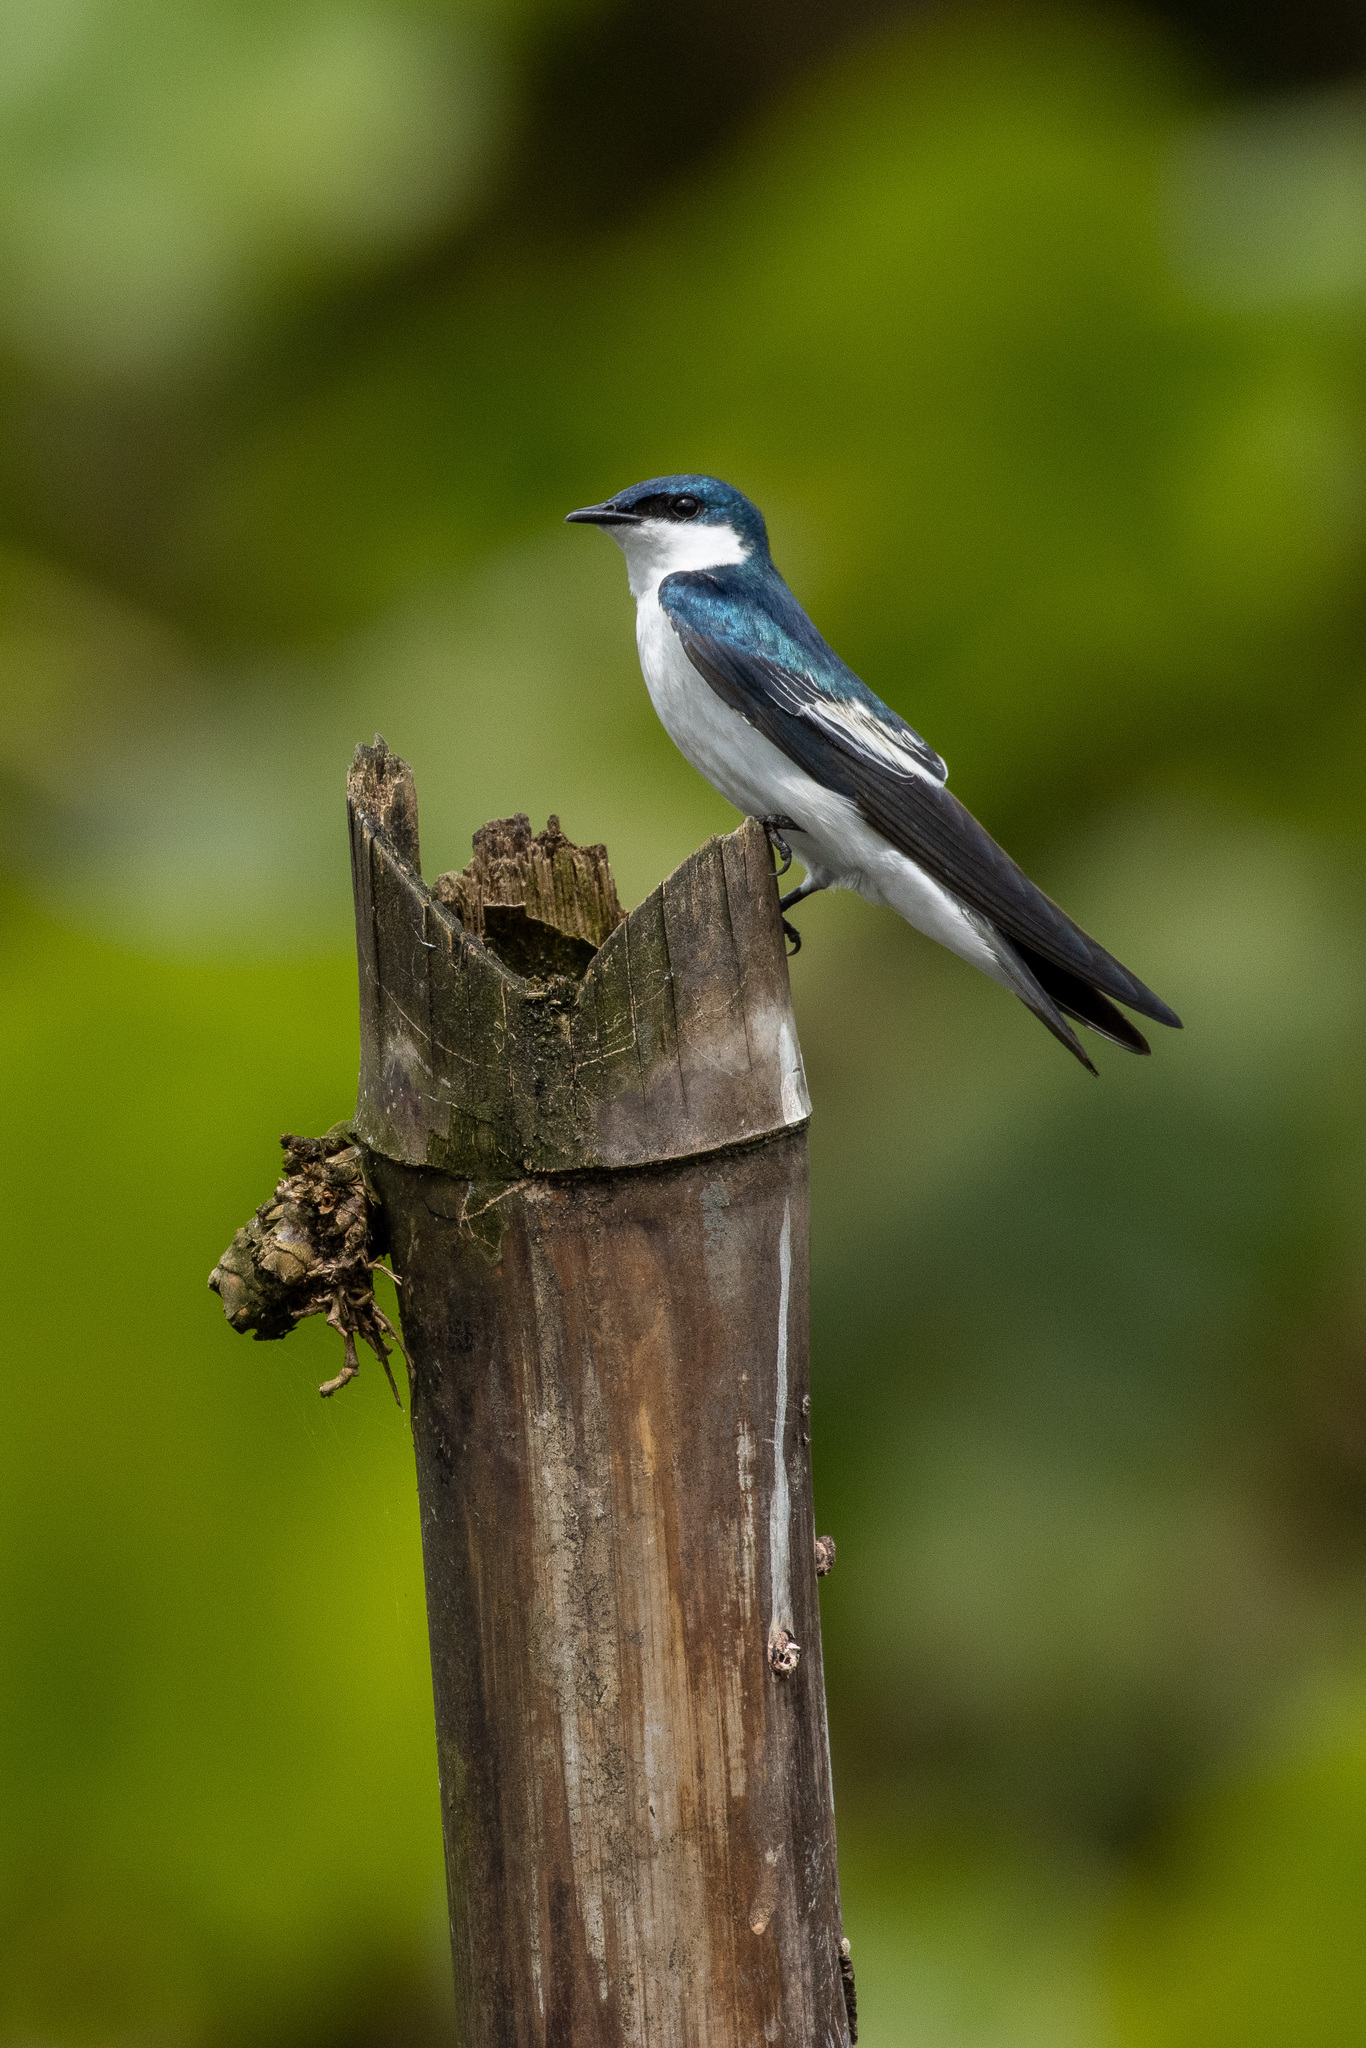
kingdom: Animalia
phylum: Chordata
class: Aves
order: Passeriformes
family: Hirundinidae
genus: Tachycineta
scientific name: Tachycineta albiventer
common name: White-winged swallow
